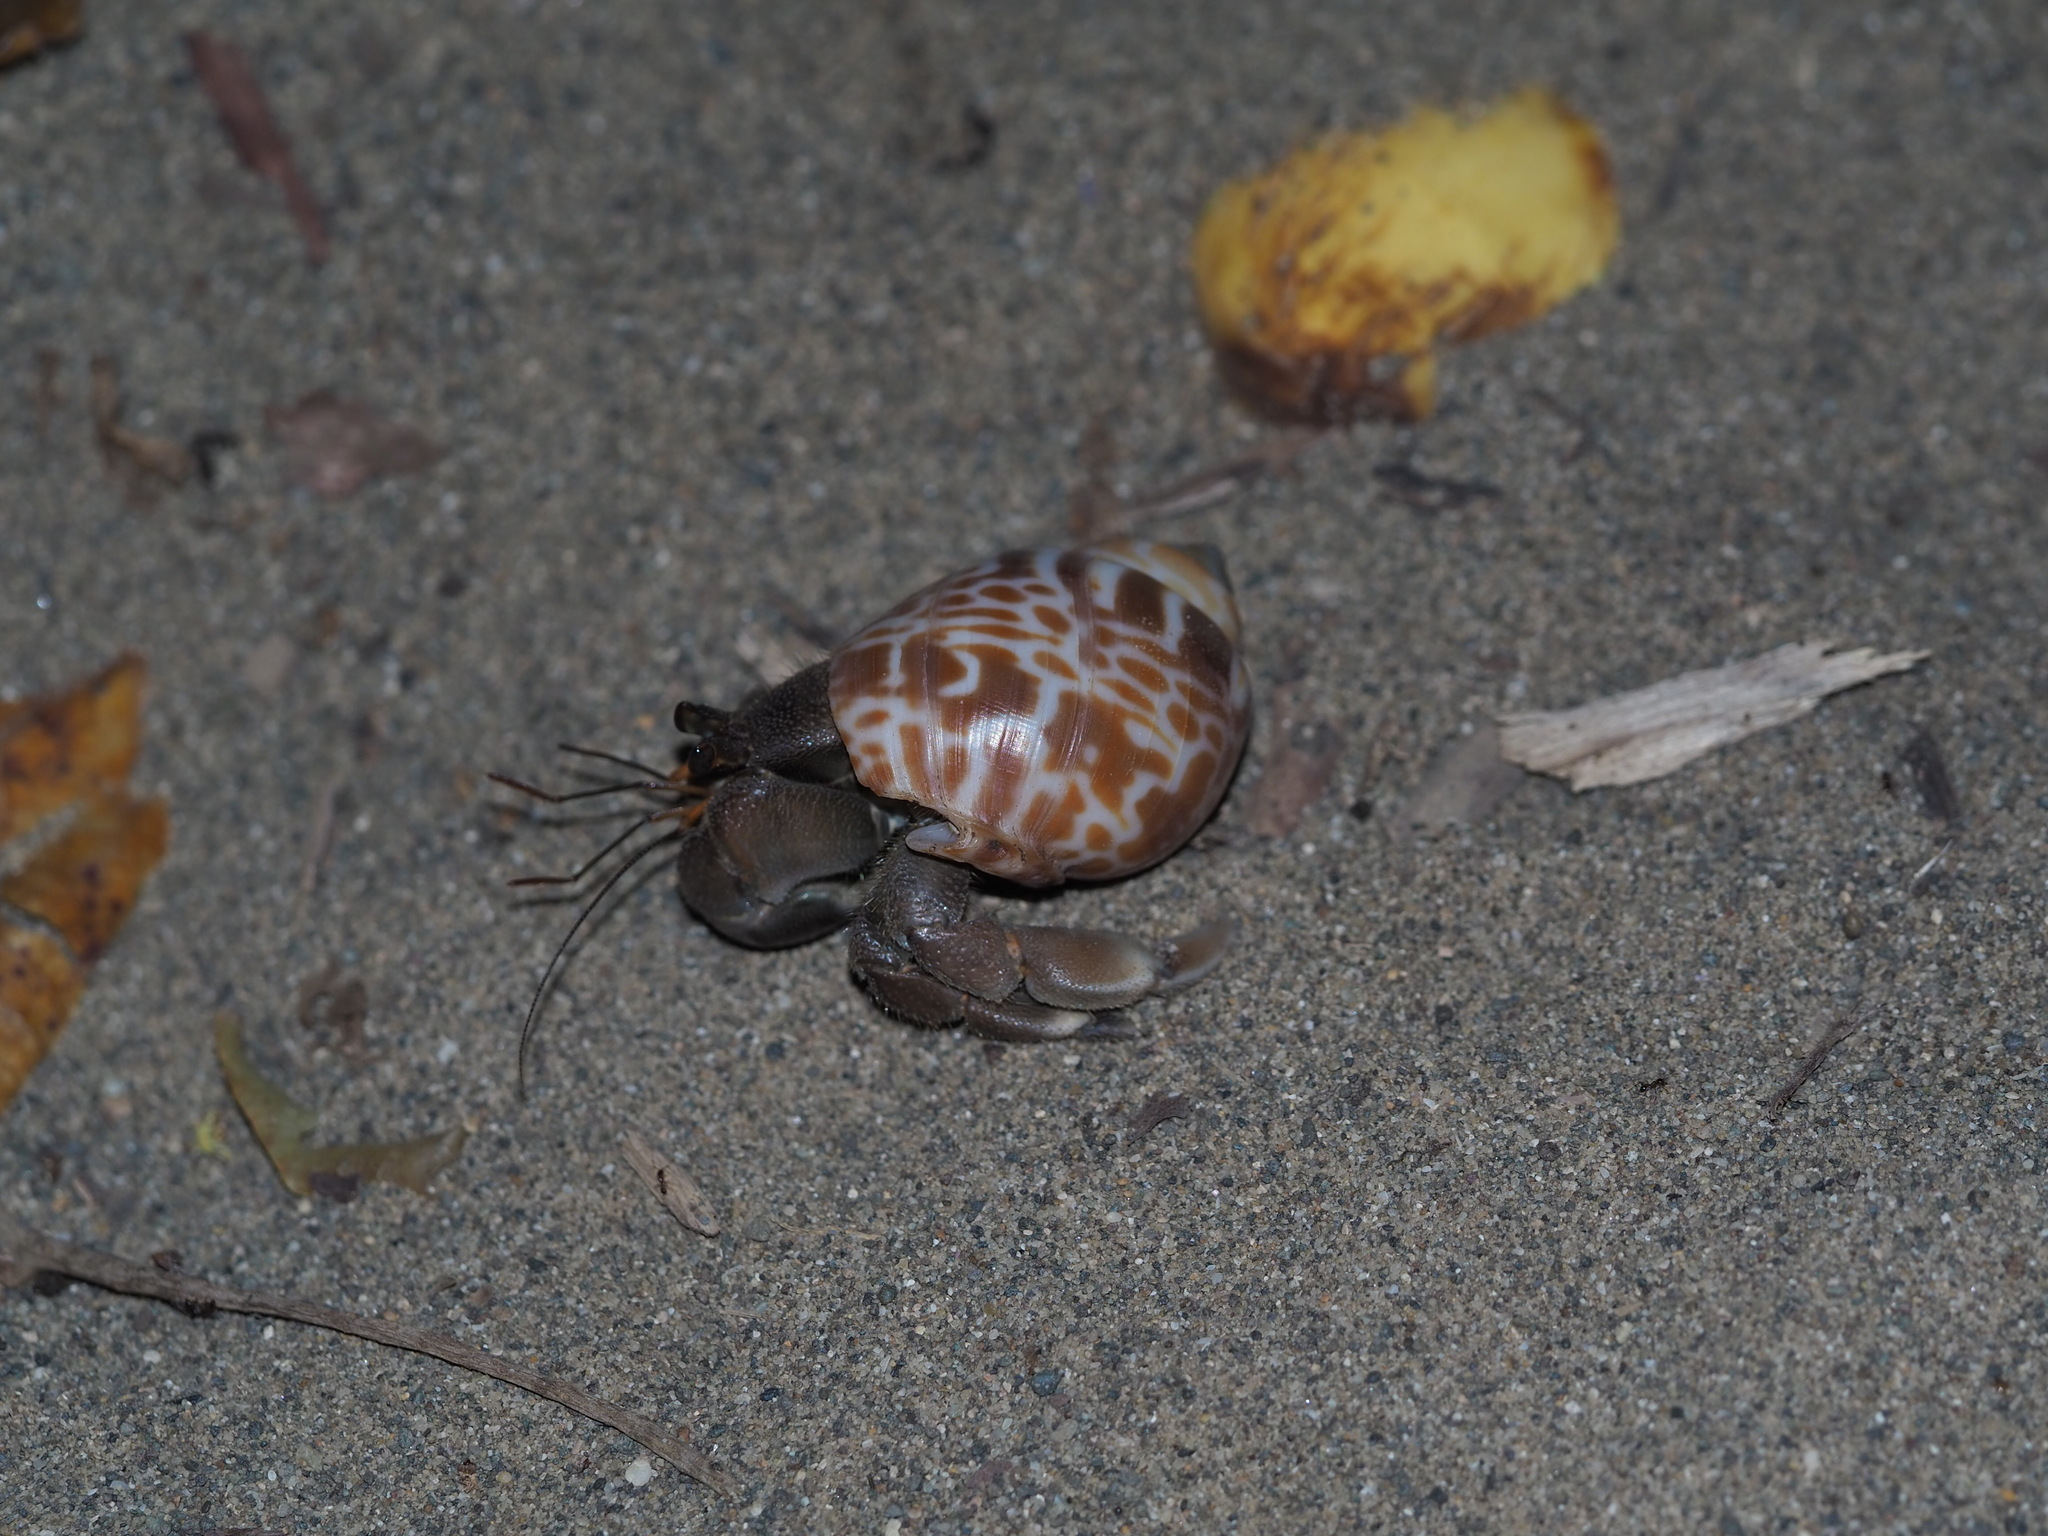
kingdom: Animalia
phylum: Arthropoda
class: Malacostraca
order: Decapoda
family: Coenobitidae
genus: Coenobita
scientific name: Coenobita cavipes
